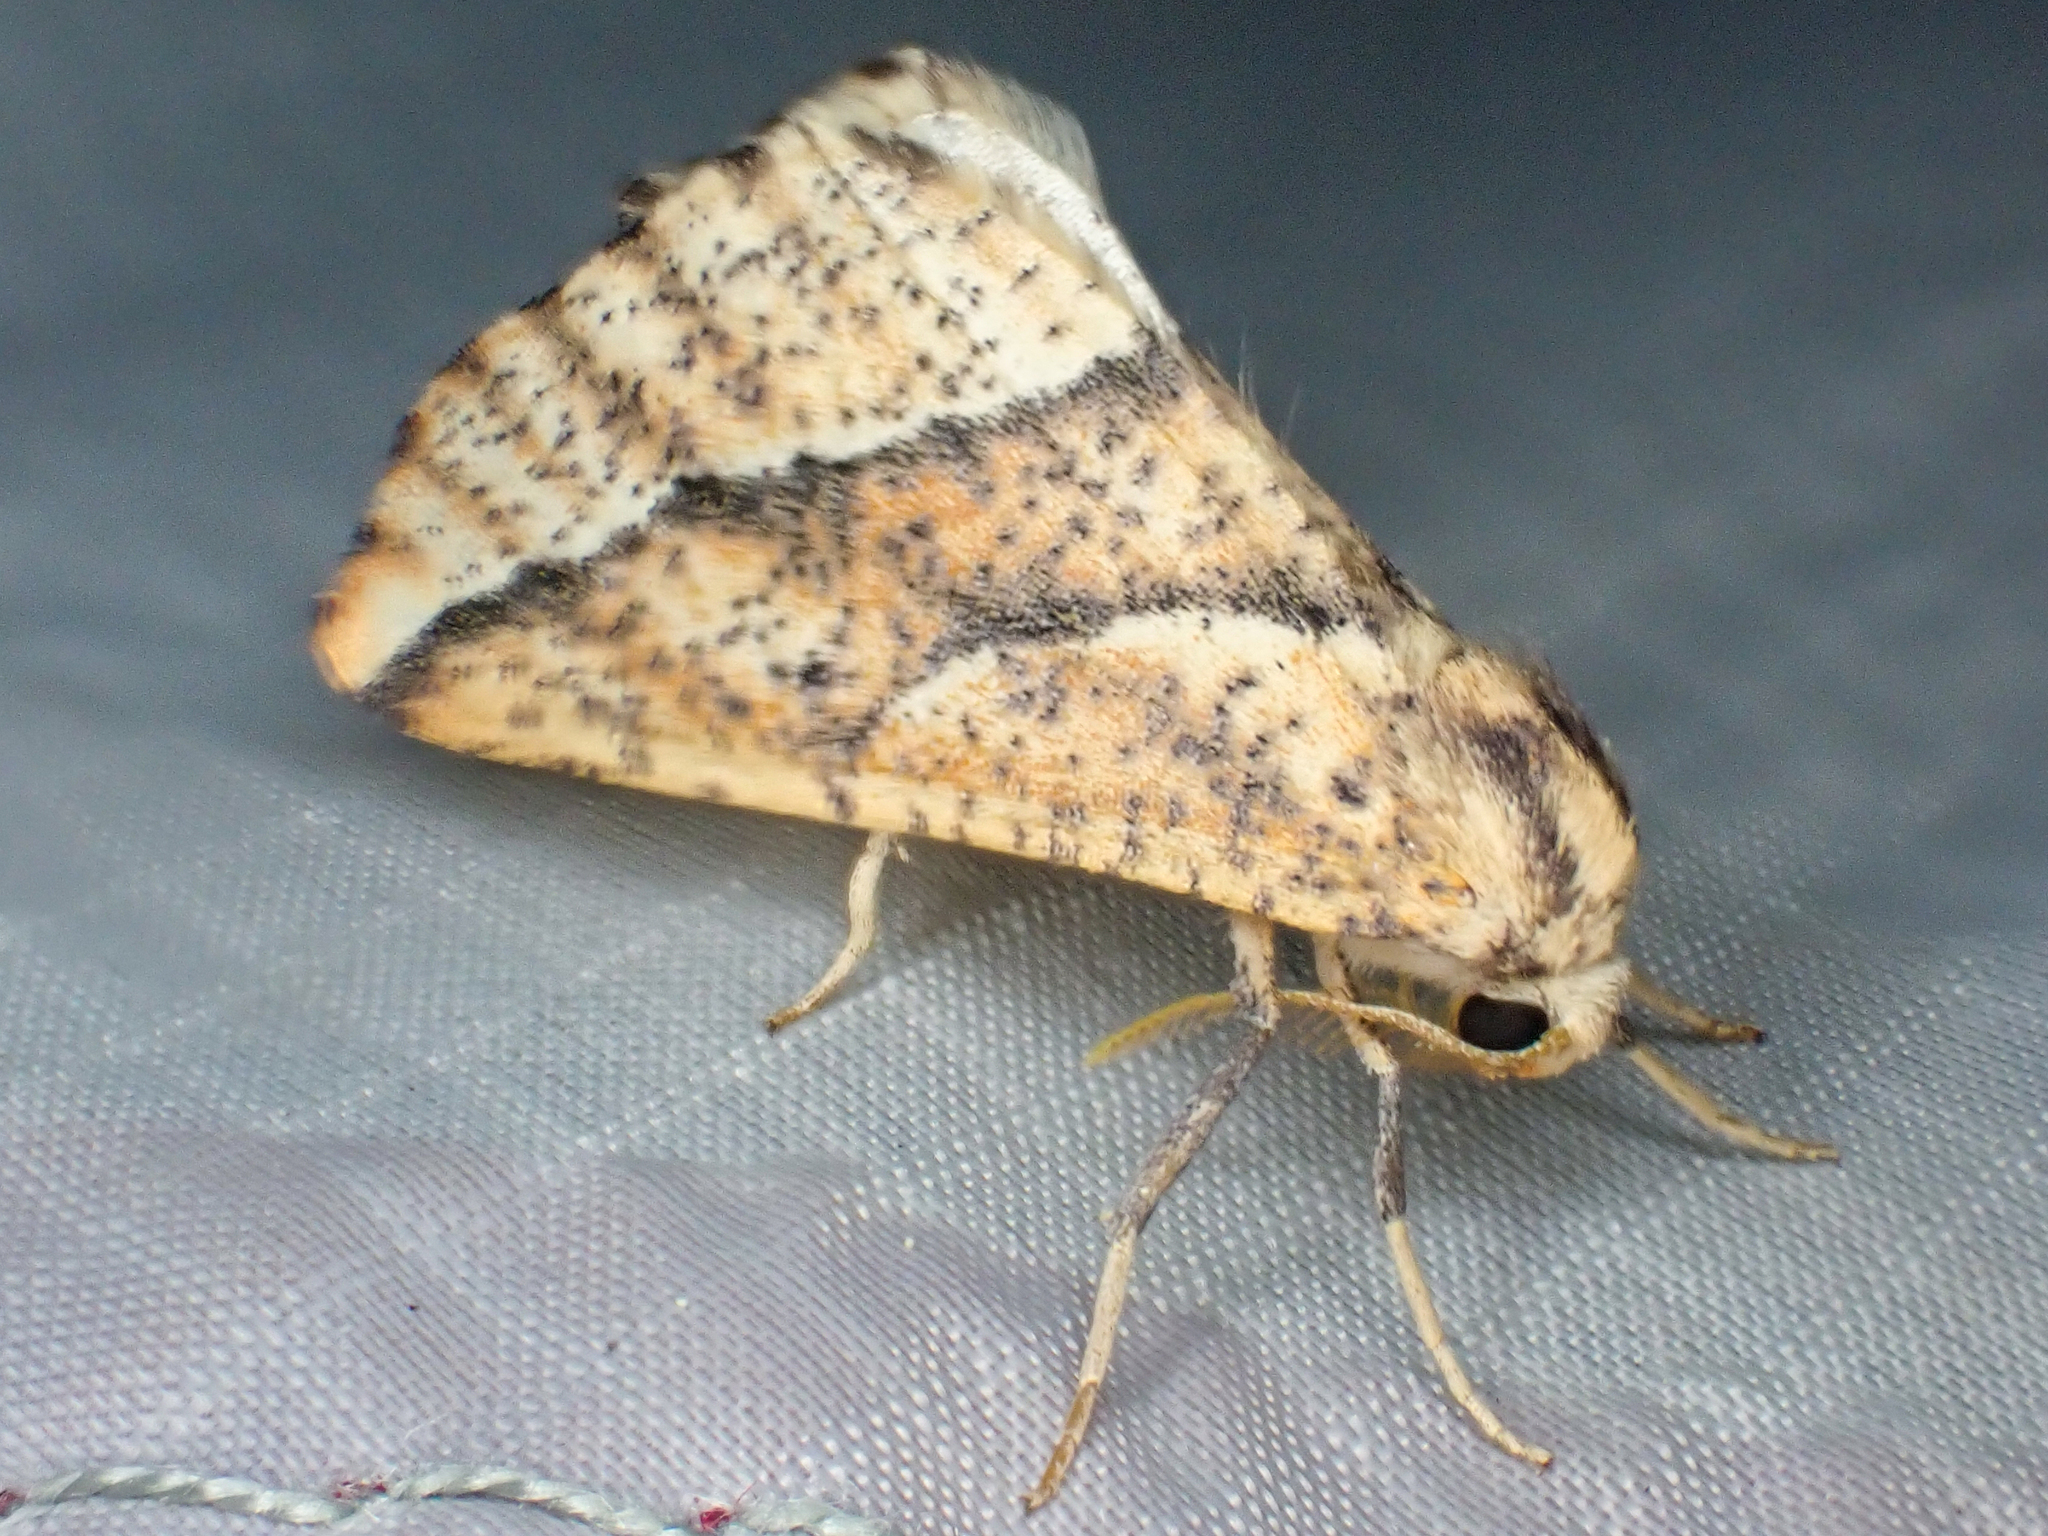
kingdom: Animalia
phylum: Arthropoda
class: Insecta
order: Lepidoptera
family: Geometridae
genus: Sicya
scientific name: Sicya morsicaria
